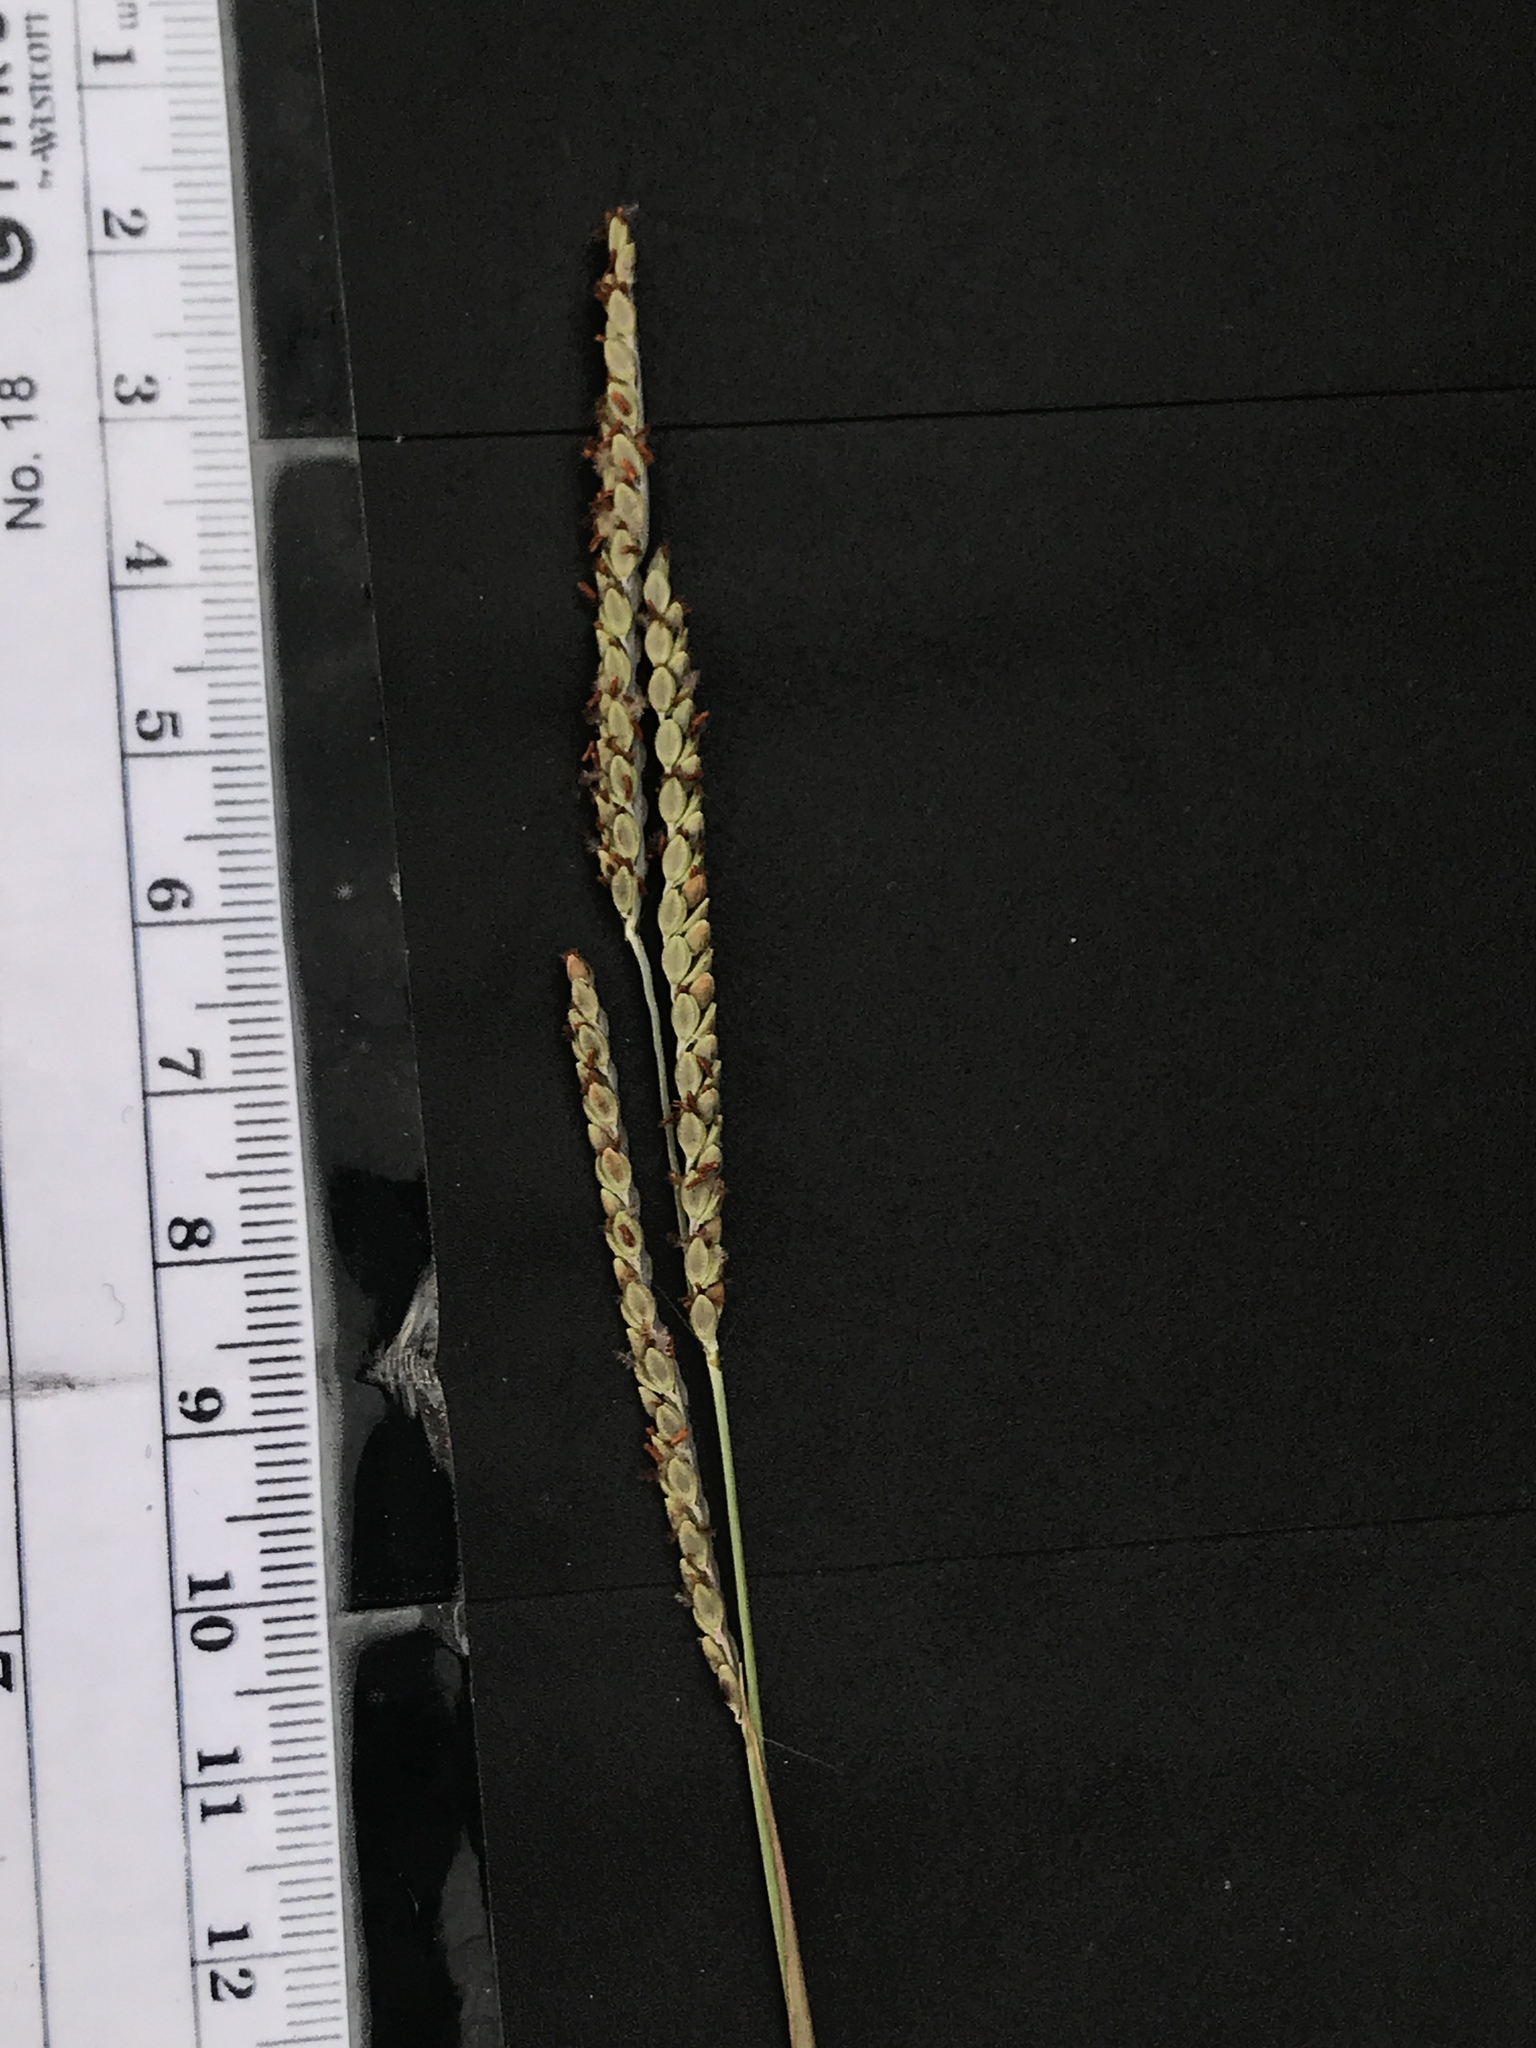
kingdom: Plantae
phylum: Tracheophyta
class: Liliopsida
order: Poales
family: Poaceae
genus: Paspalum
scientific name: Paspalum plicatulum
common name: Top paspalum
